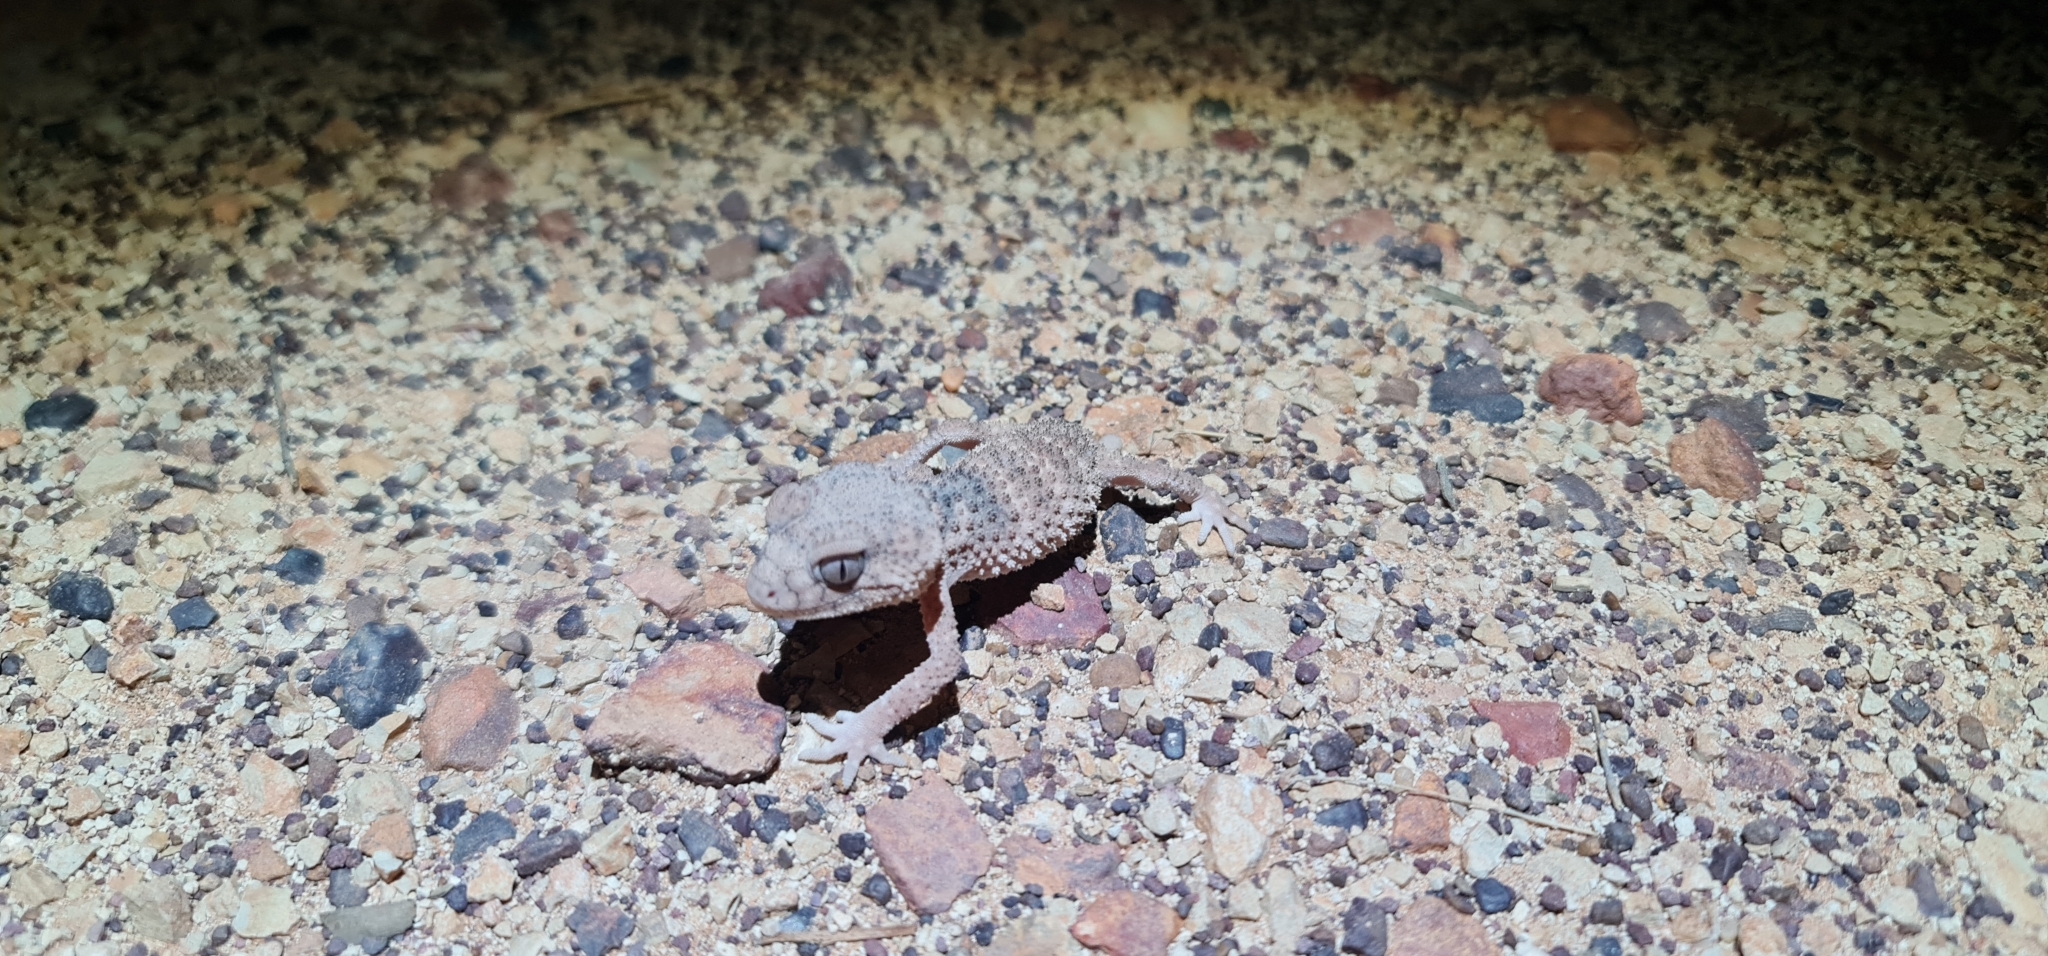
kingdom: Animalia
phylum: Chordata
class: Squamata
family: Carphodactylidae
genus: Nephrurus
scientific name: Nephrurus
